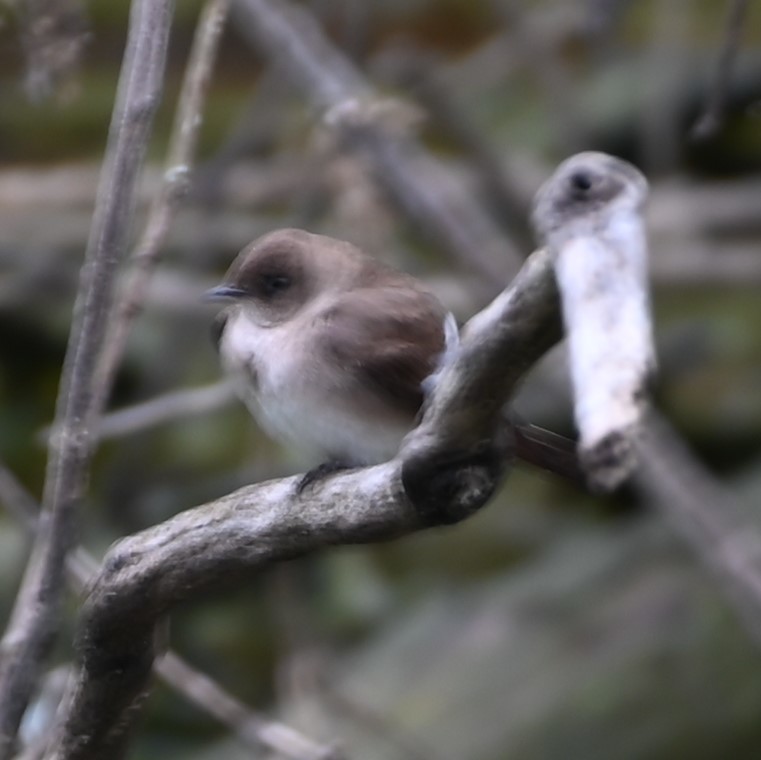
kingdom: Animalia
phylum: Chordata
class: Aves
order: Passeriformes
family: Hirundinidae
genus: Stelgidopteryx
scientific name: Stelgidopteryx serripennis
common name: Northern rough-winged swallow
